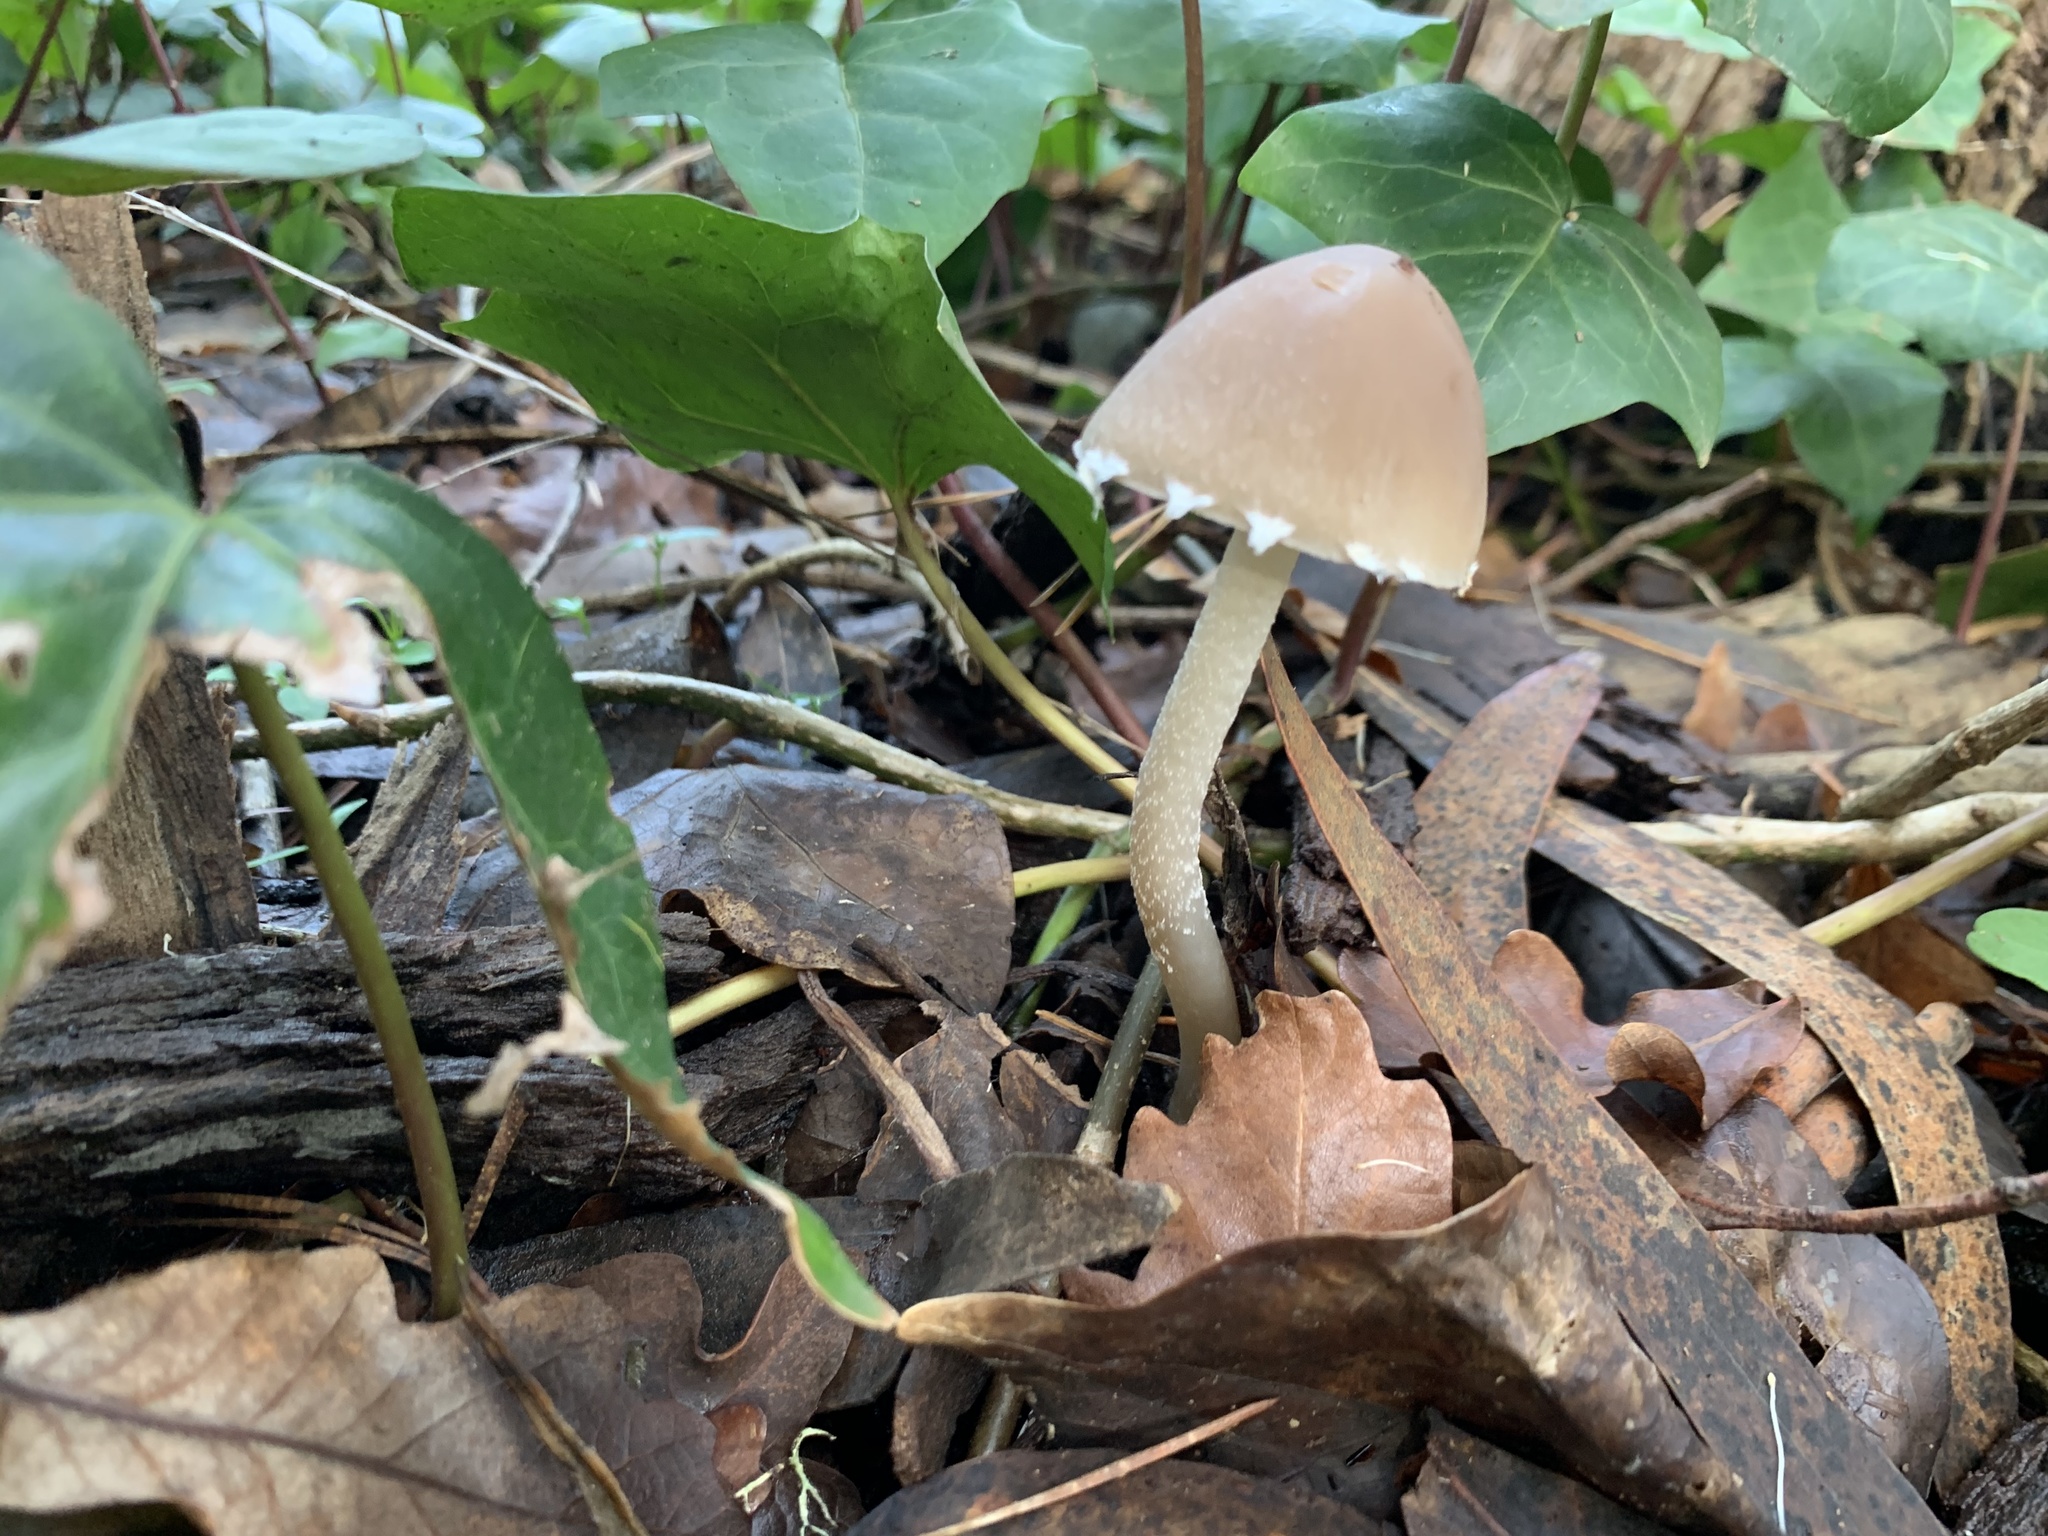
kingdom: Fungi
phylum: Basidiomycota
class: Agaricomycetes
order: Agaricales
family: Psathyrellaceae
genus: Psathyrella
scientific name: Psathyrella longipes
